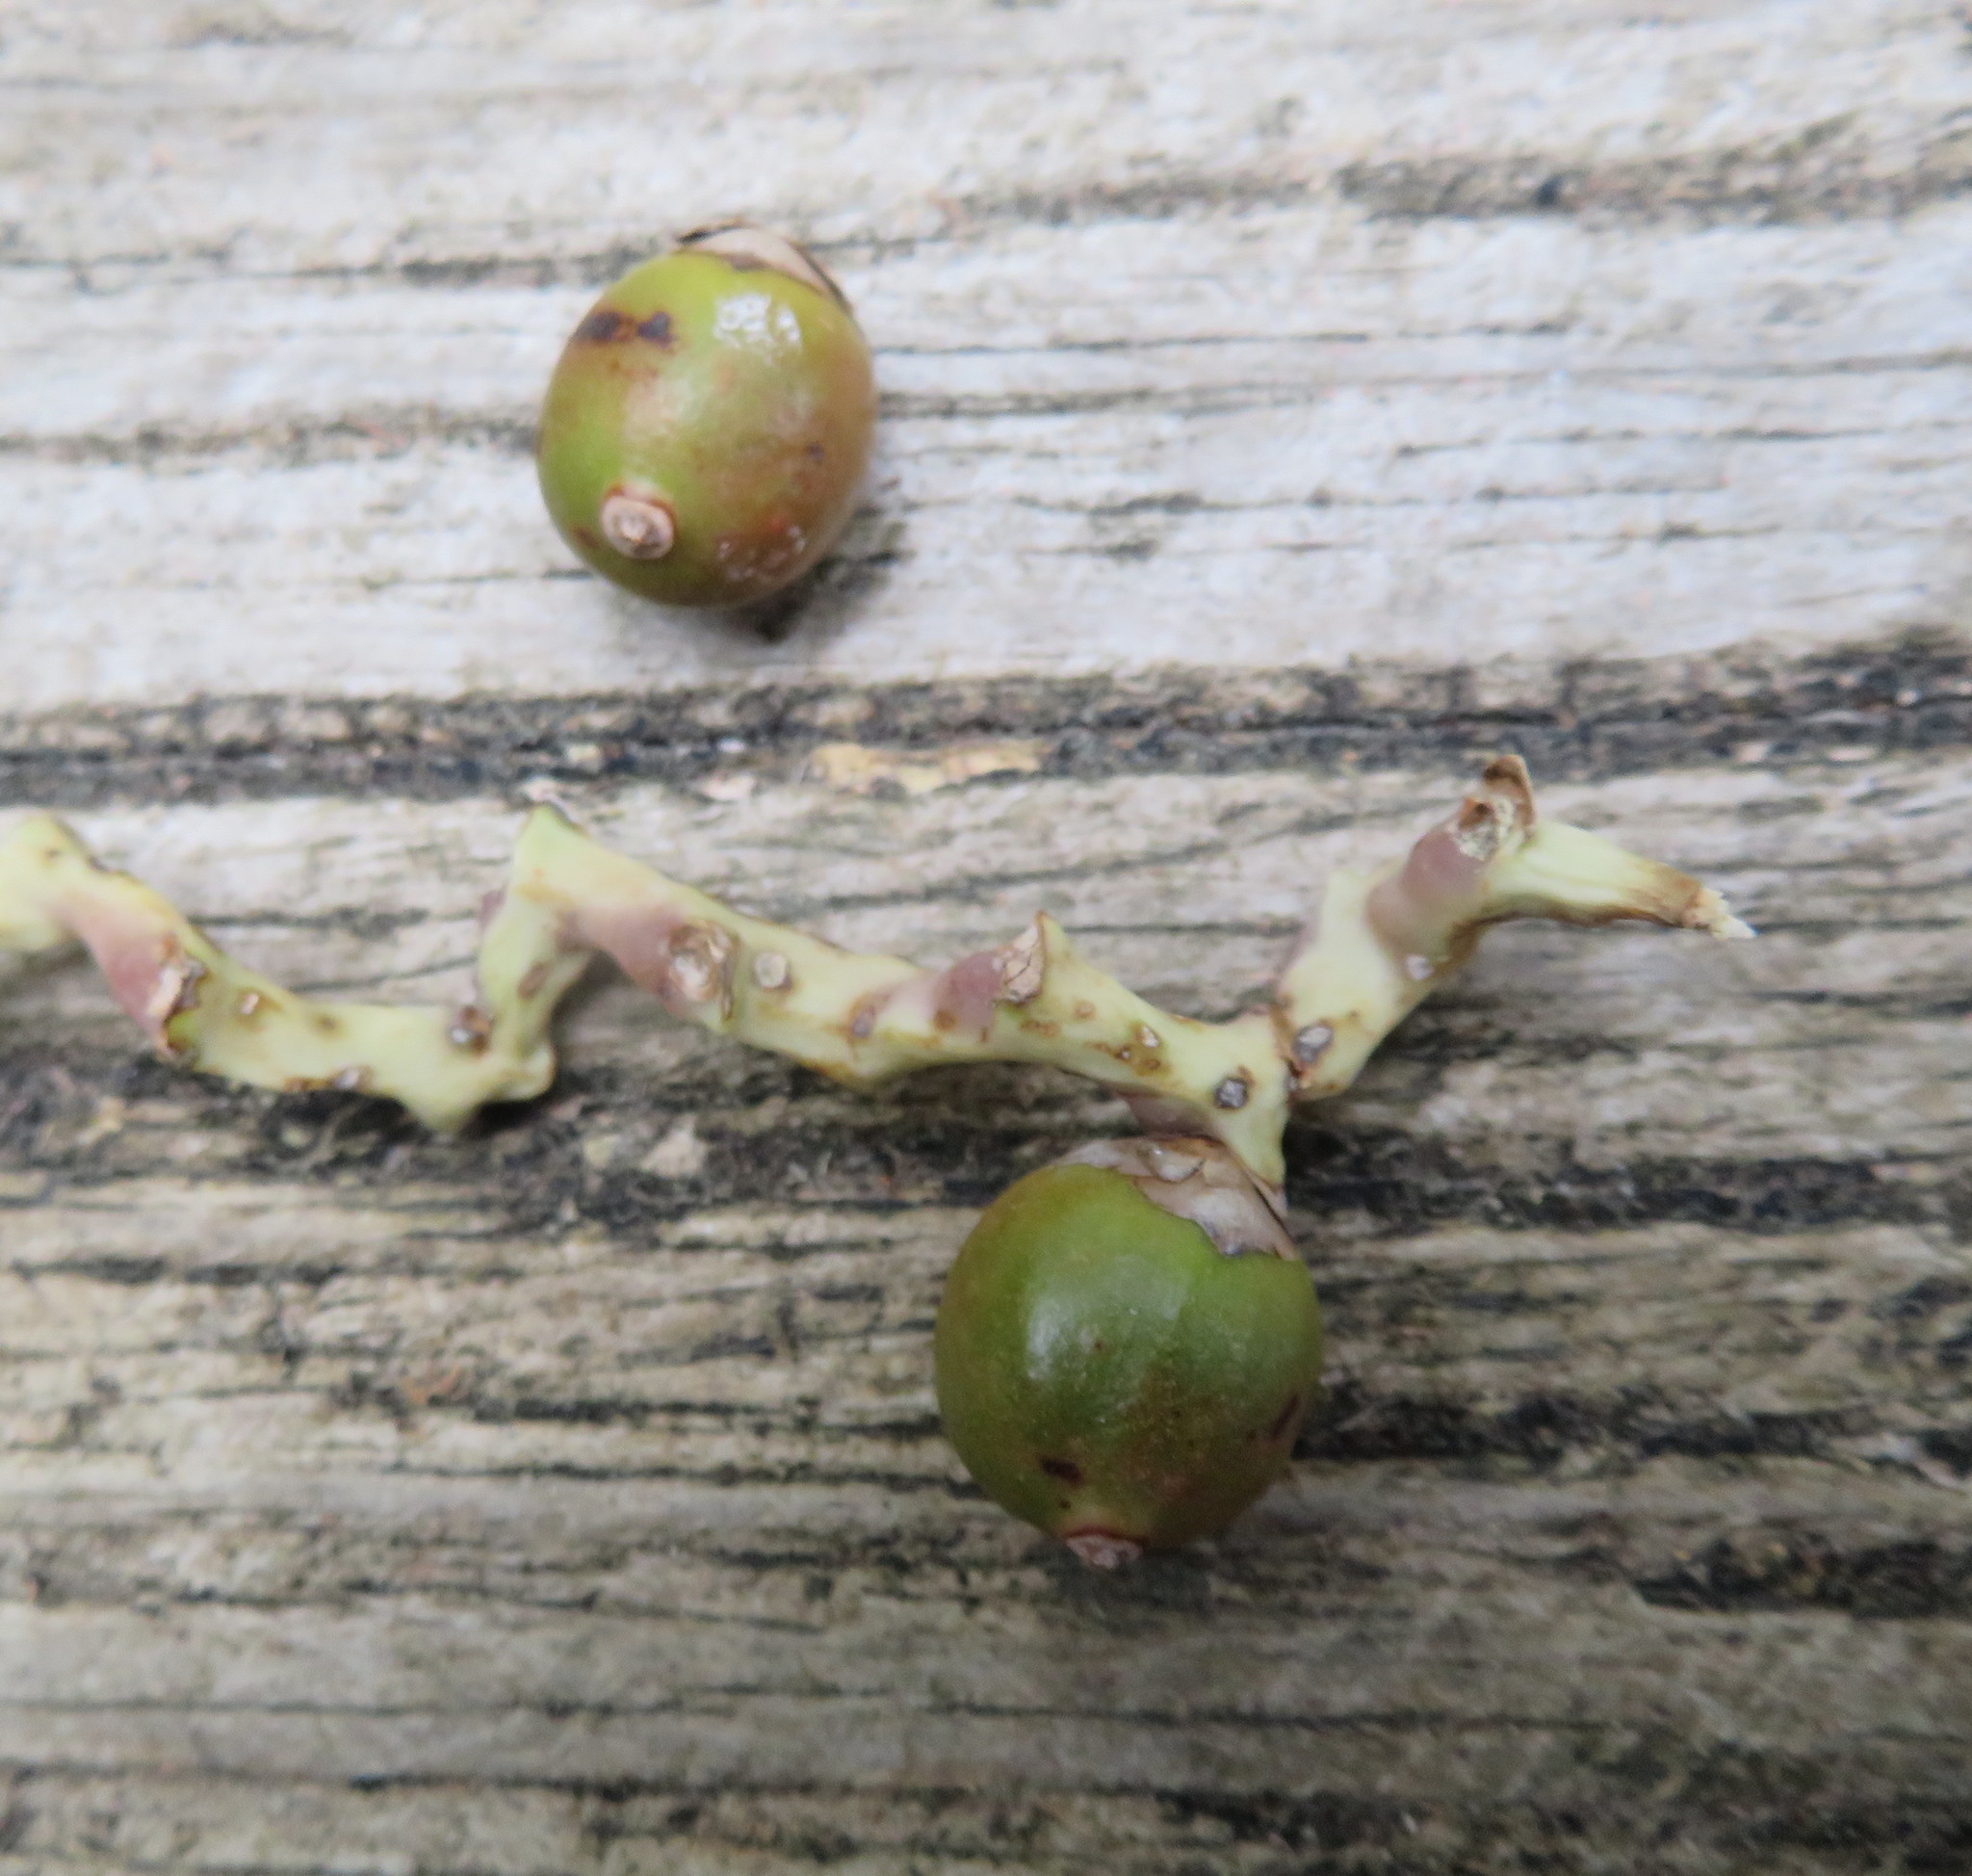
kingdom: Plantae
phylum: Tracheophyta
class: Liliopsida
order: Arecales
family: Arecaceae
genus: Archontophoenix
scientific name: Archontophoenix cunninghamiana
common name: Piccabeen bangalow palm
